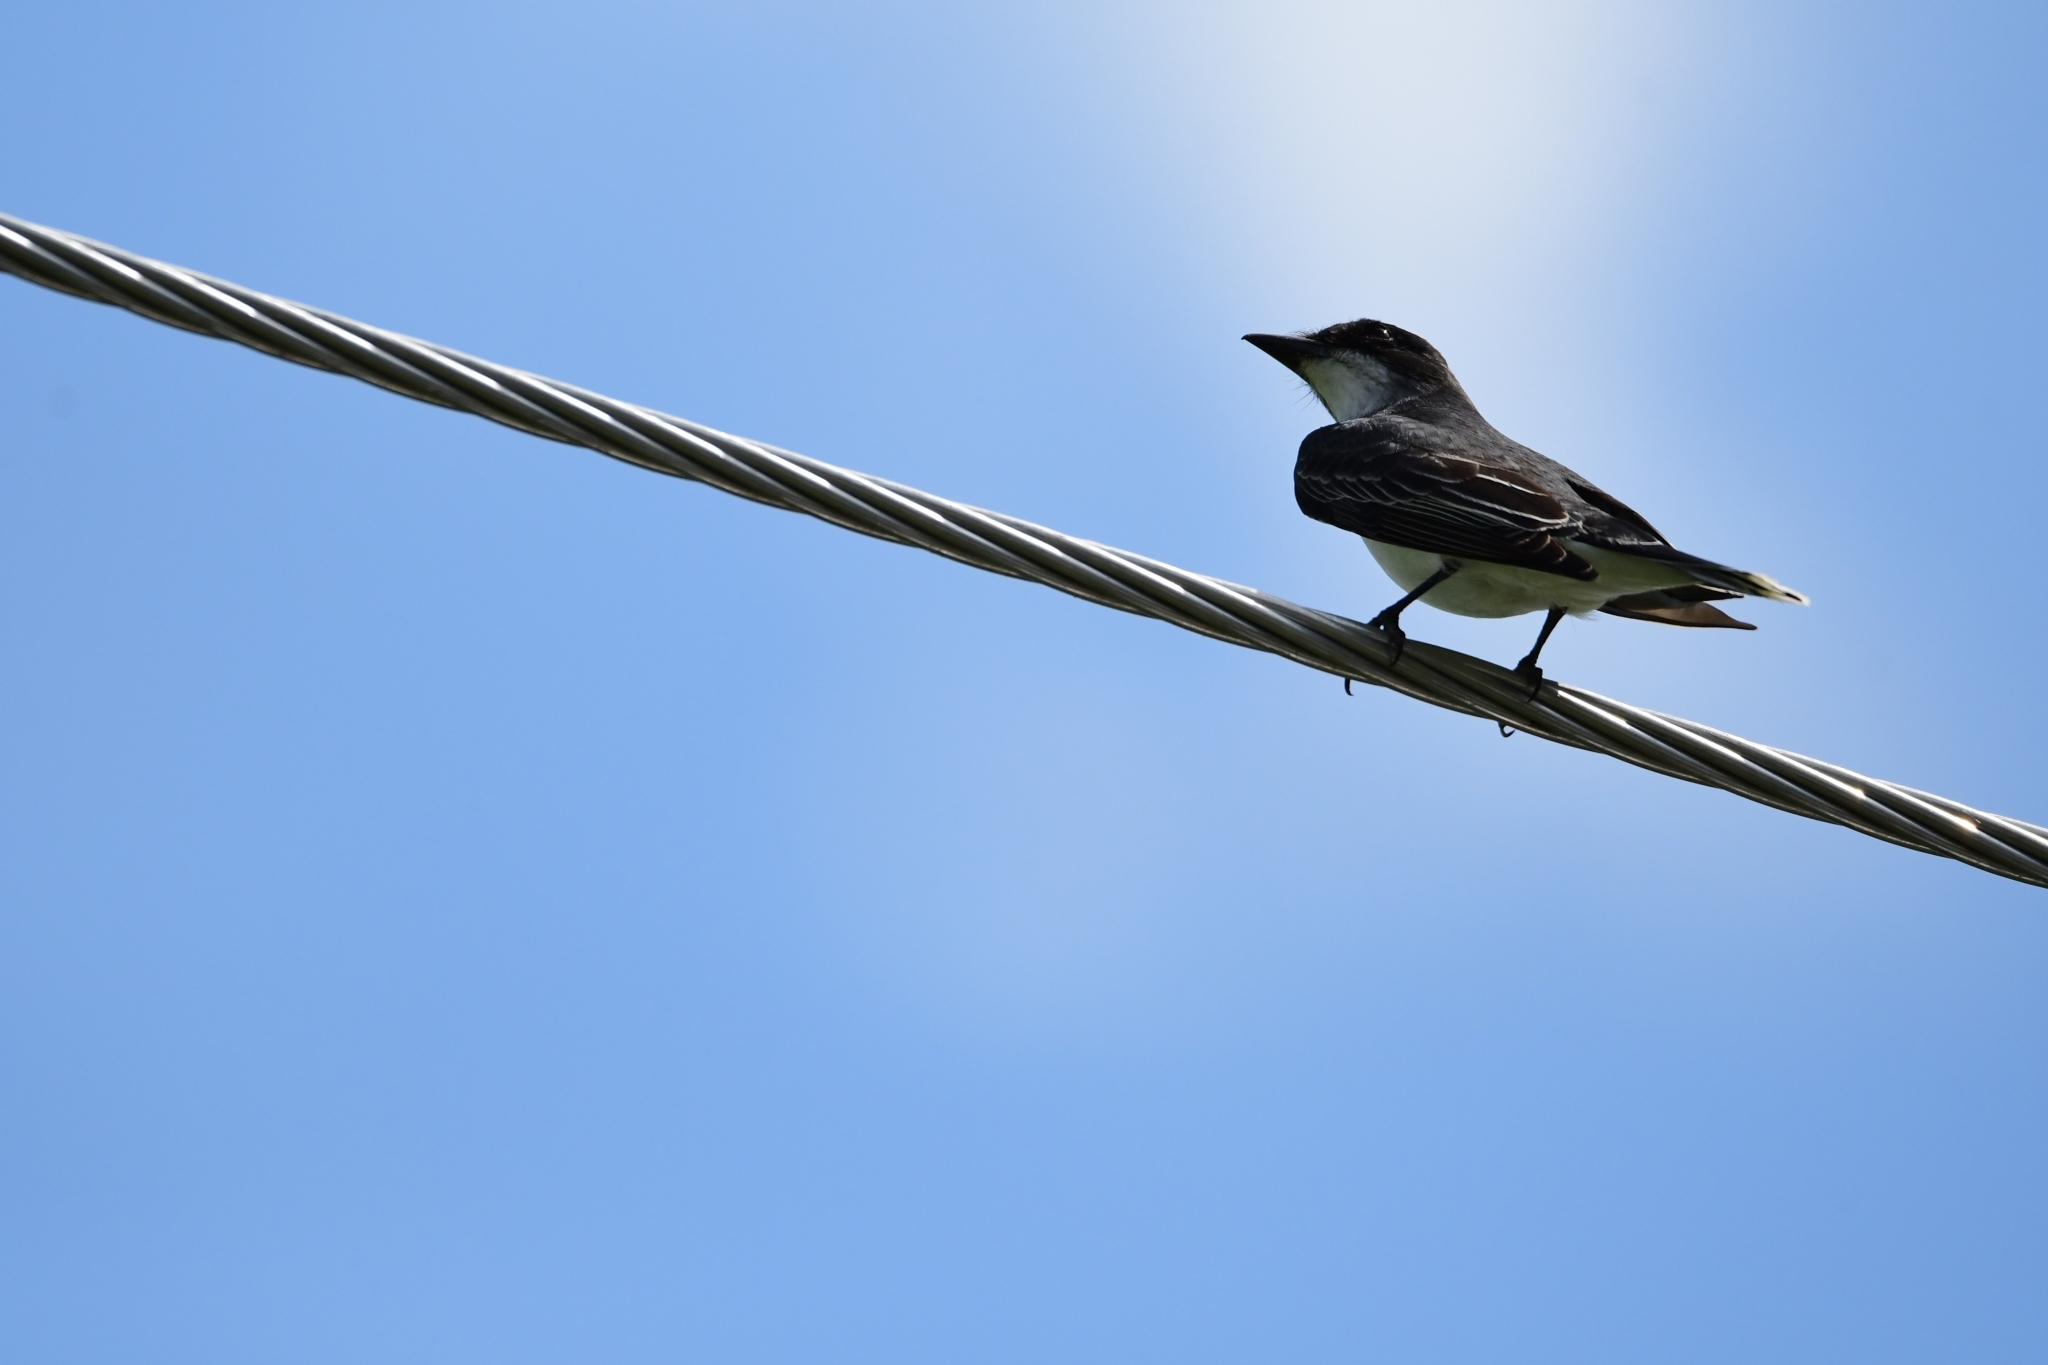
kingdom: Animalia
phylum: Chordata
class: Aves
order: Passeriformes
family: Tyrannidae
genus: Tyrannus
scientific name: Tyrannus tyrannus
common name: Eastern kingbird
